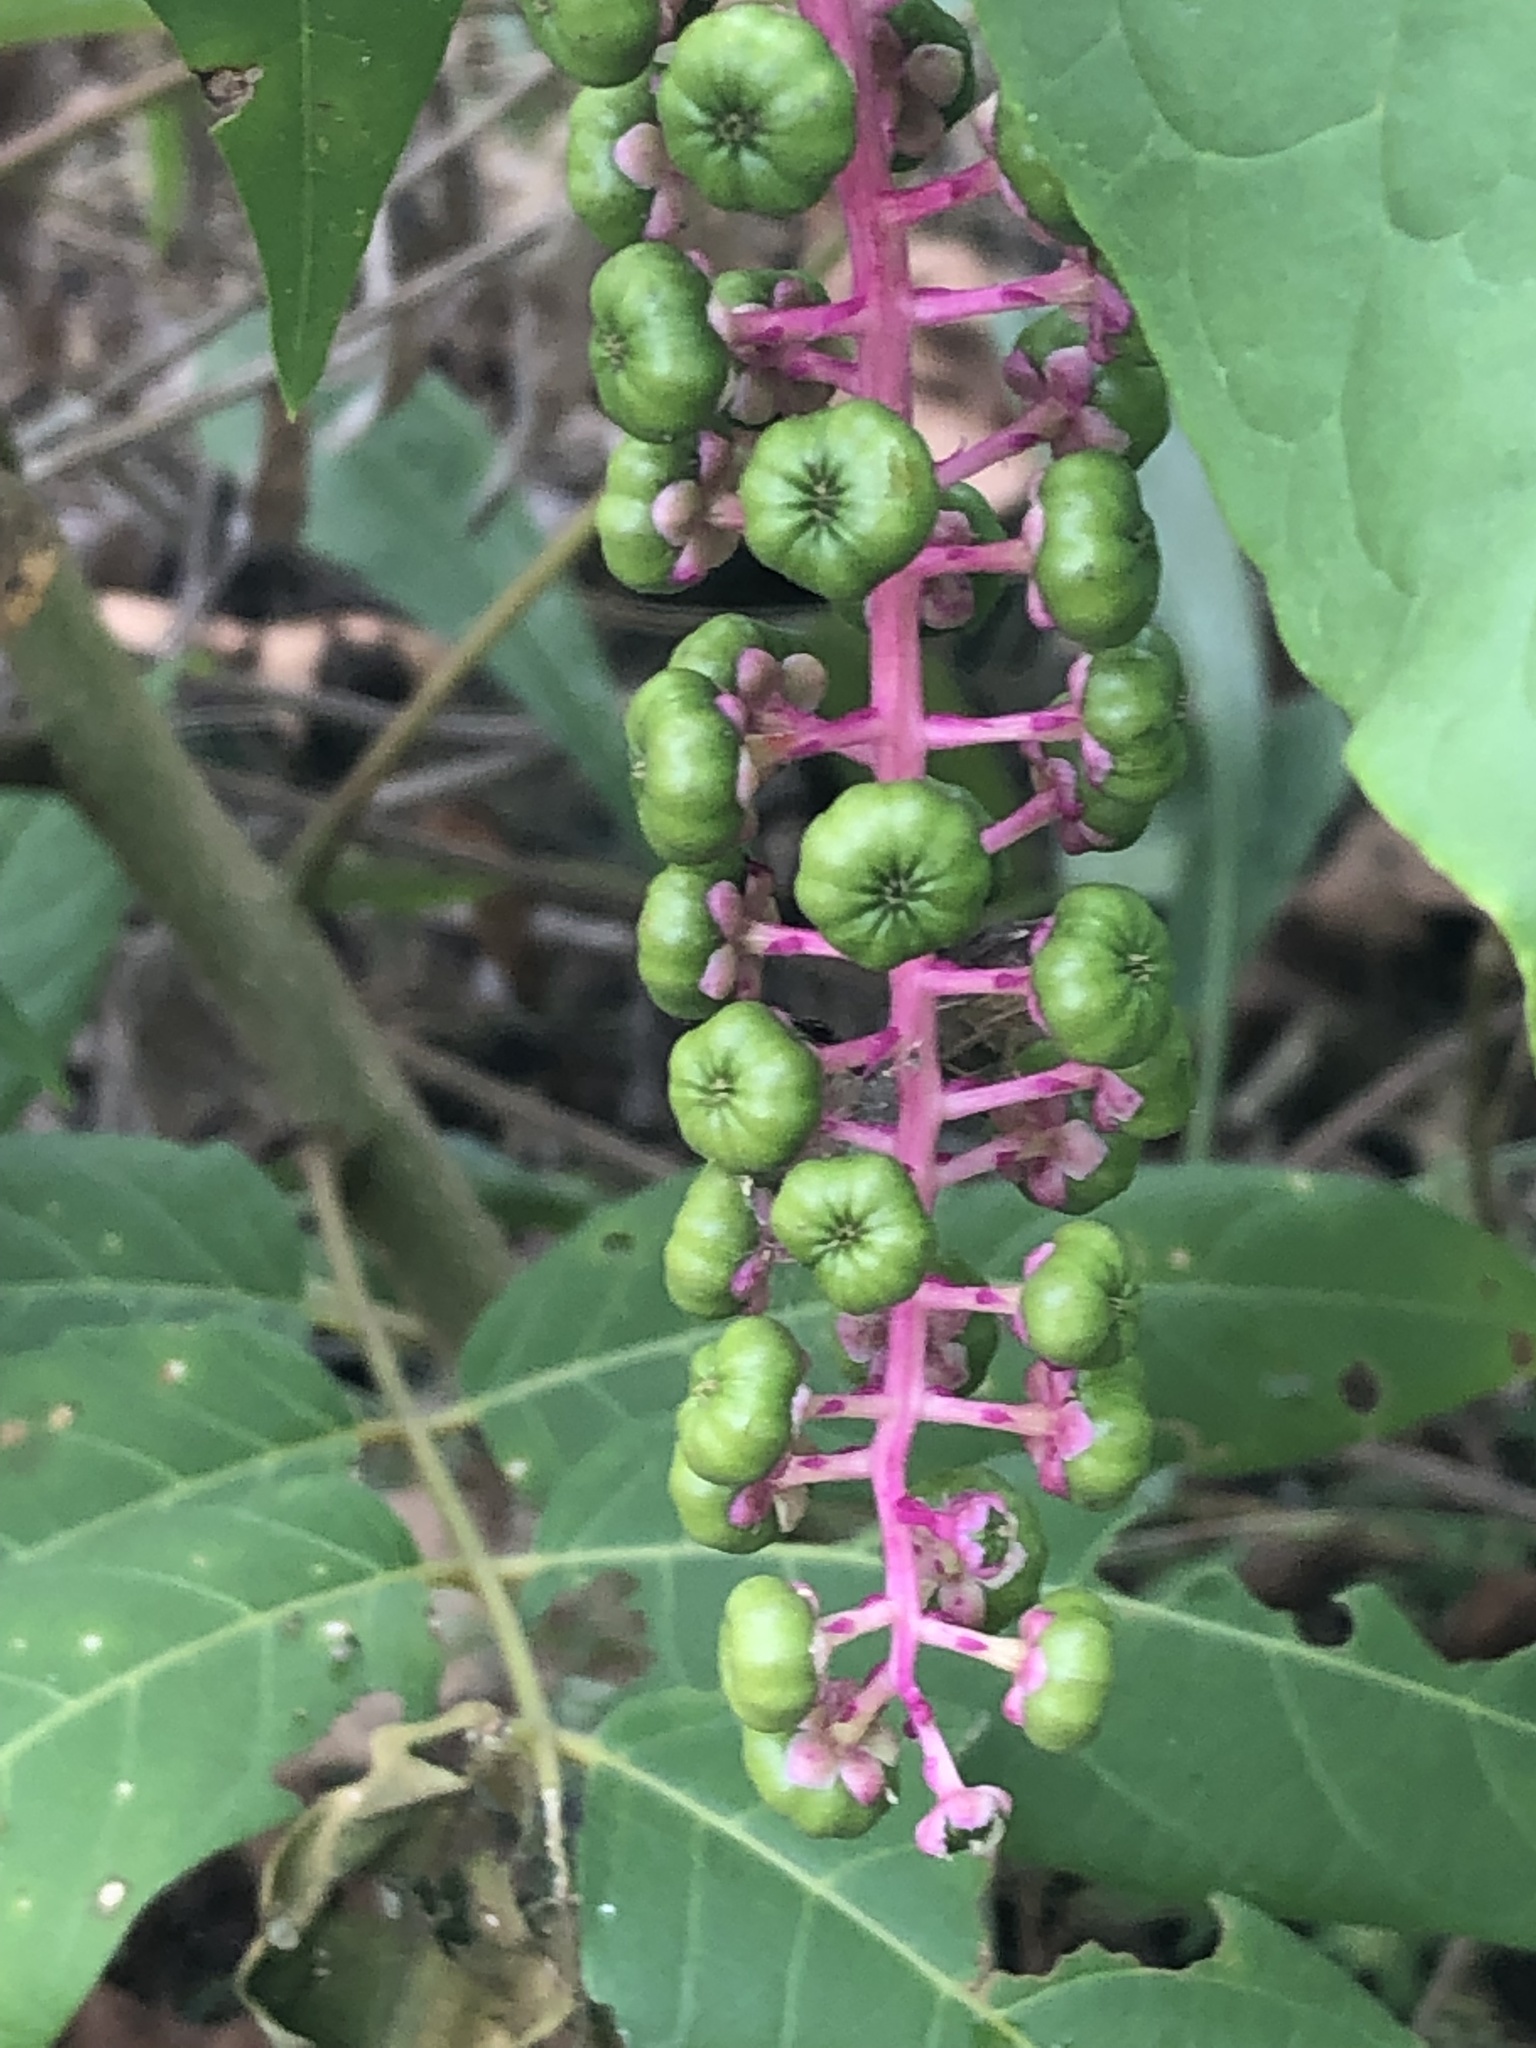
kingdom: Plantae
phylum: Tracheophyta
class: Magnoliopsida
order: Caryophyllales
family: Phytolaccaceae
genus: Phytolacca
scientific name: Phytolacca americana
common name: American pokeweed
